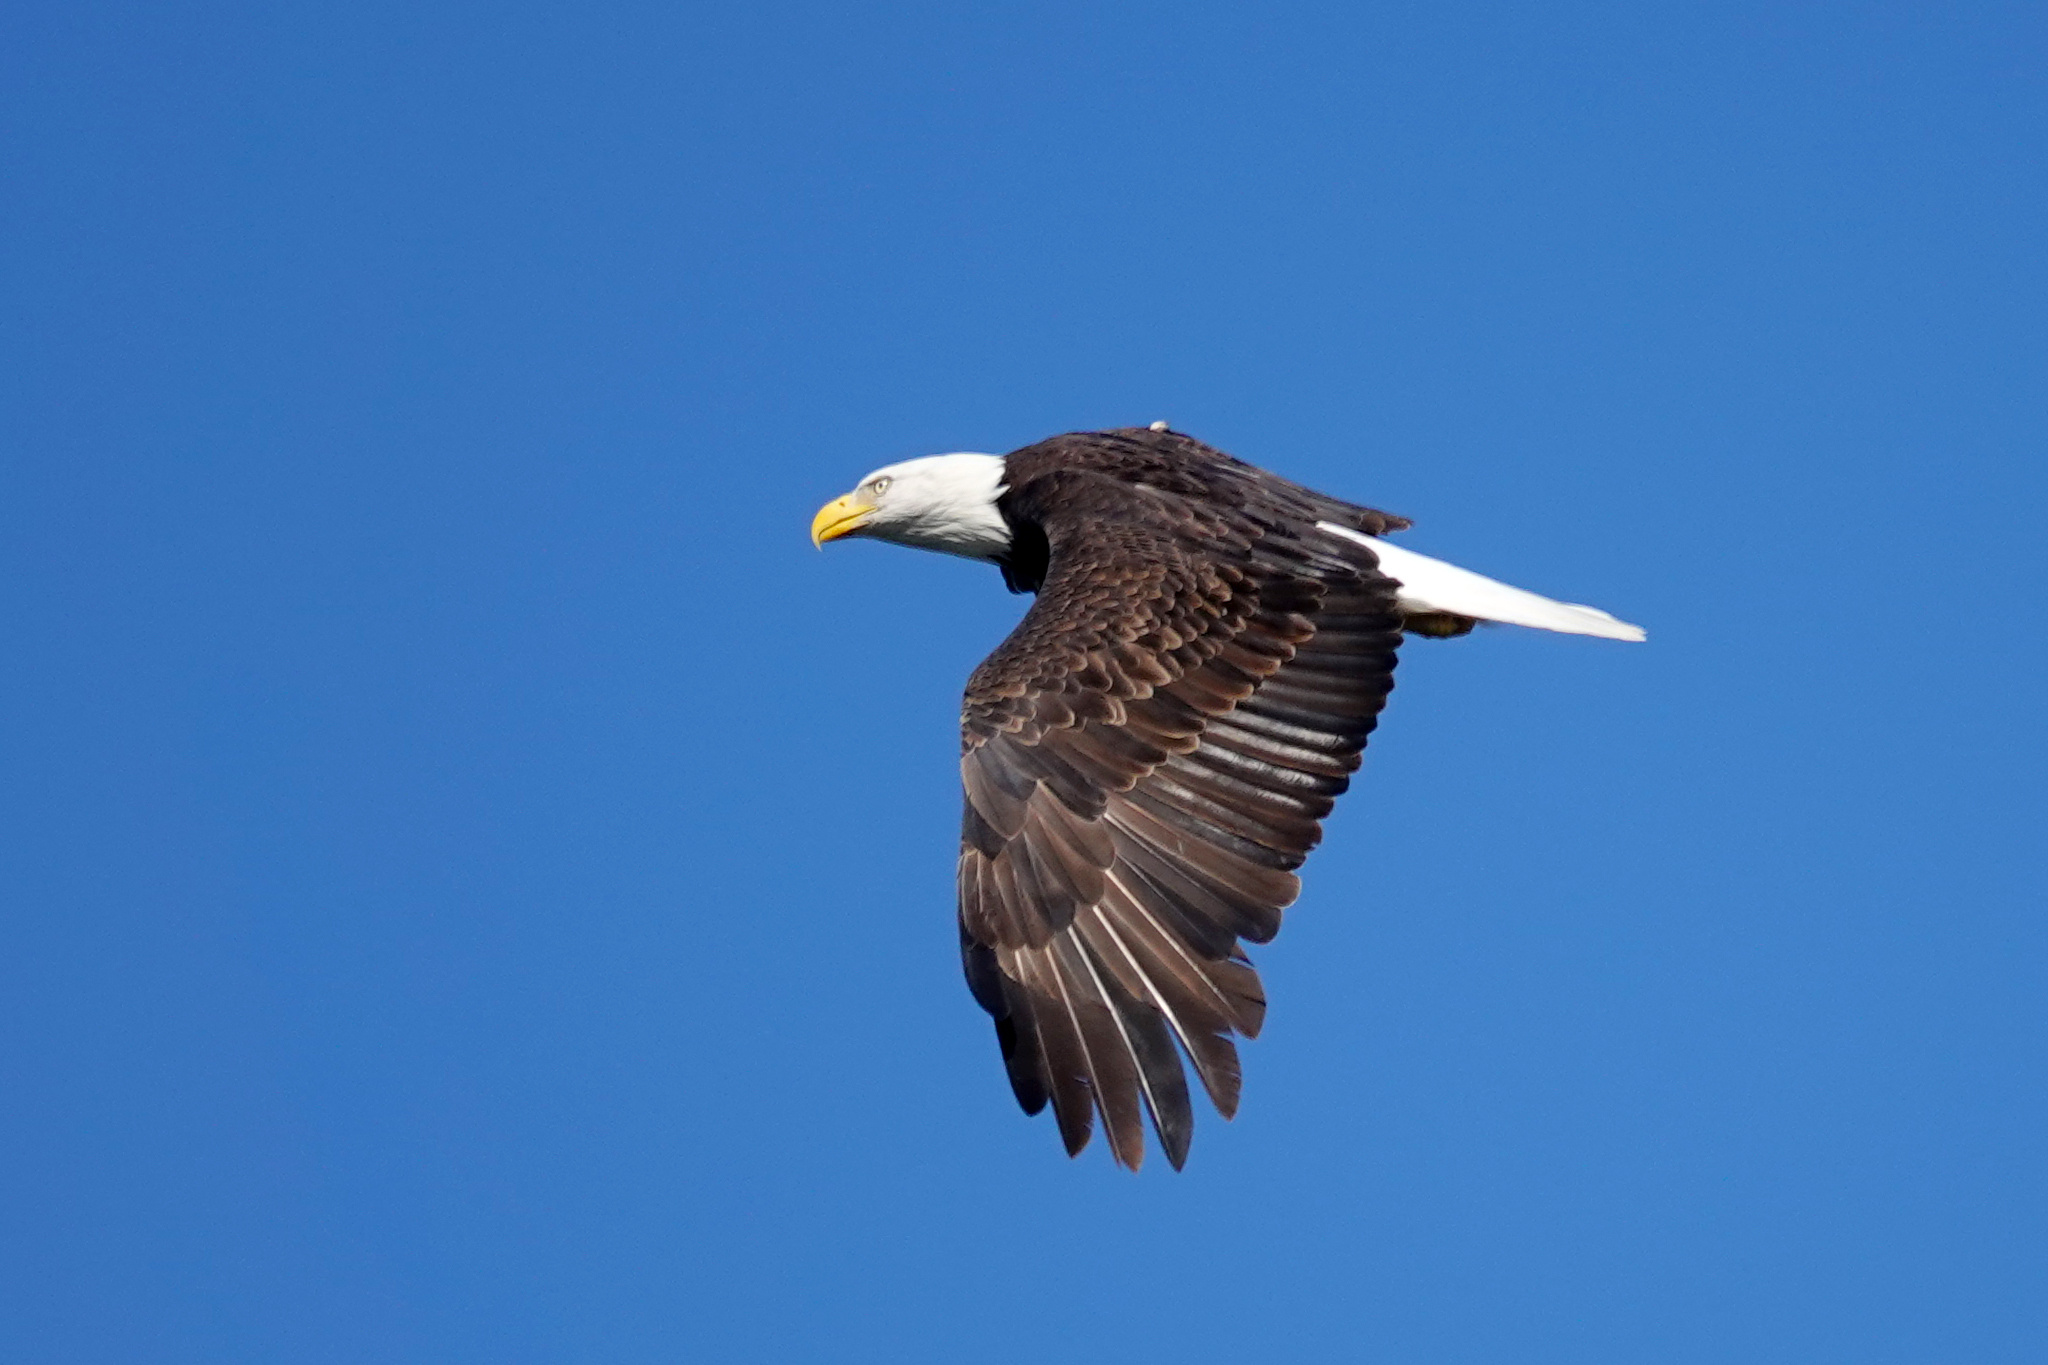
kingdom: Animalia
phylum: Chordata
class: Aves
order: Accipitriformes
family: Accipitridae
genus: Haliaeetus
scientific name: Haliaeetus leucocephalus
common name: Bald eagle
